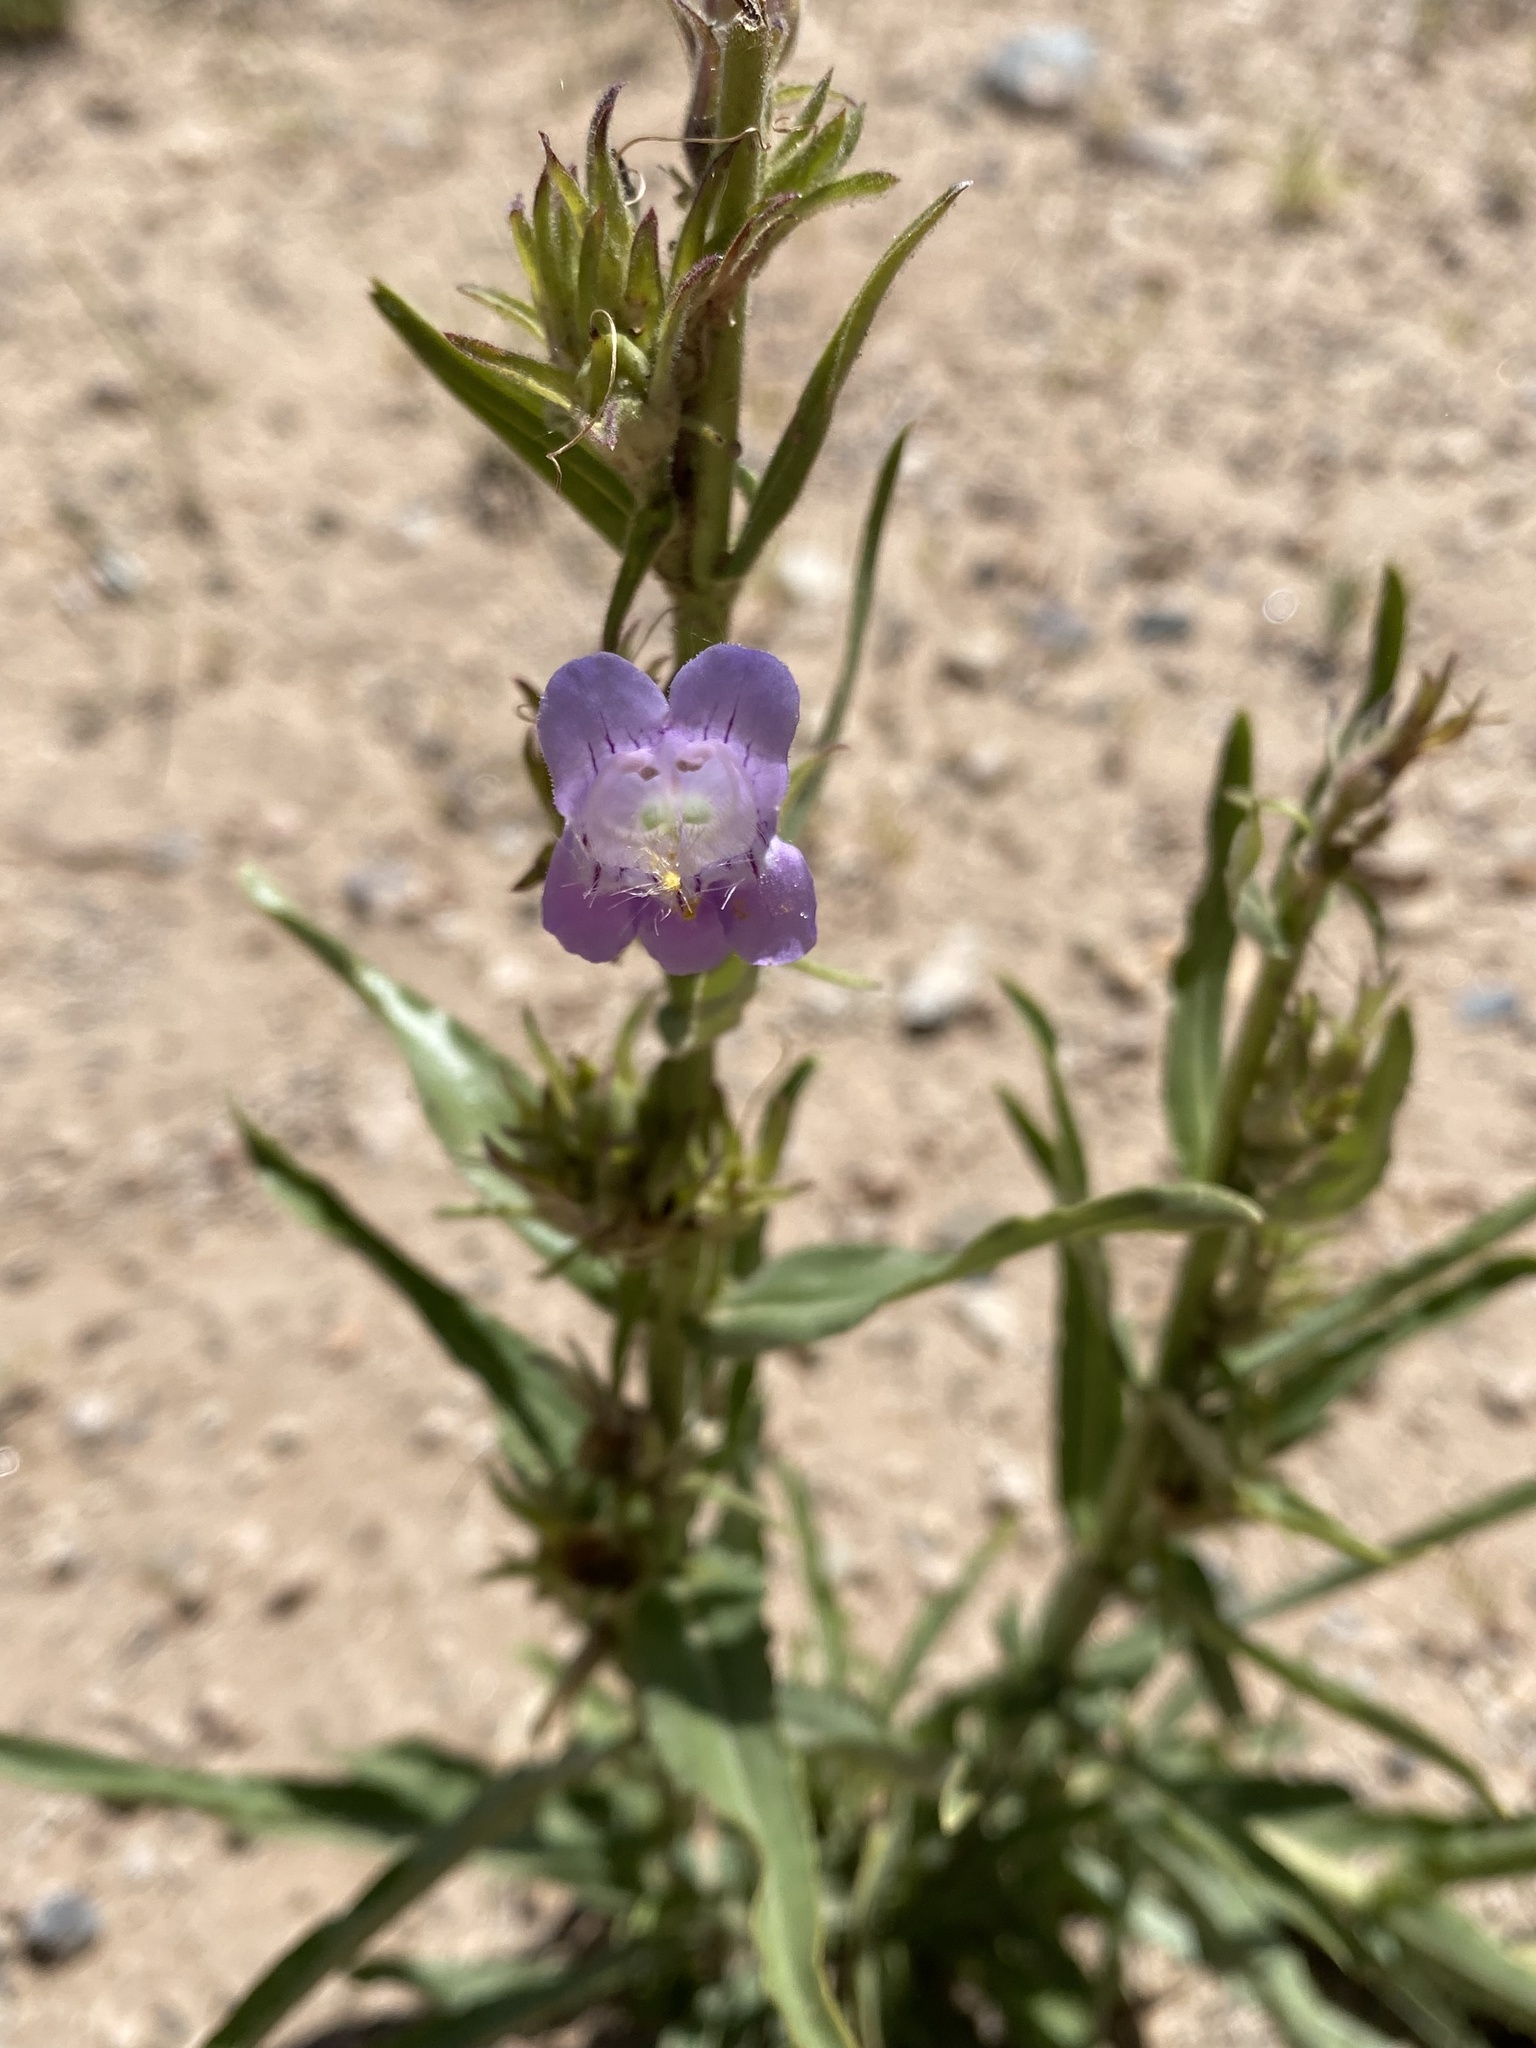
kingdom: Plantae
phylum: Tracheophyta
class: Magnoliopsida
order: Lamiales
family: Plantaginaceae
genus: Penstemon
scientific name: Penstemon jamesii
